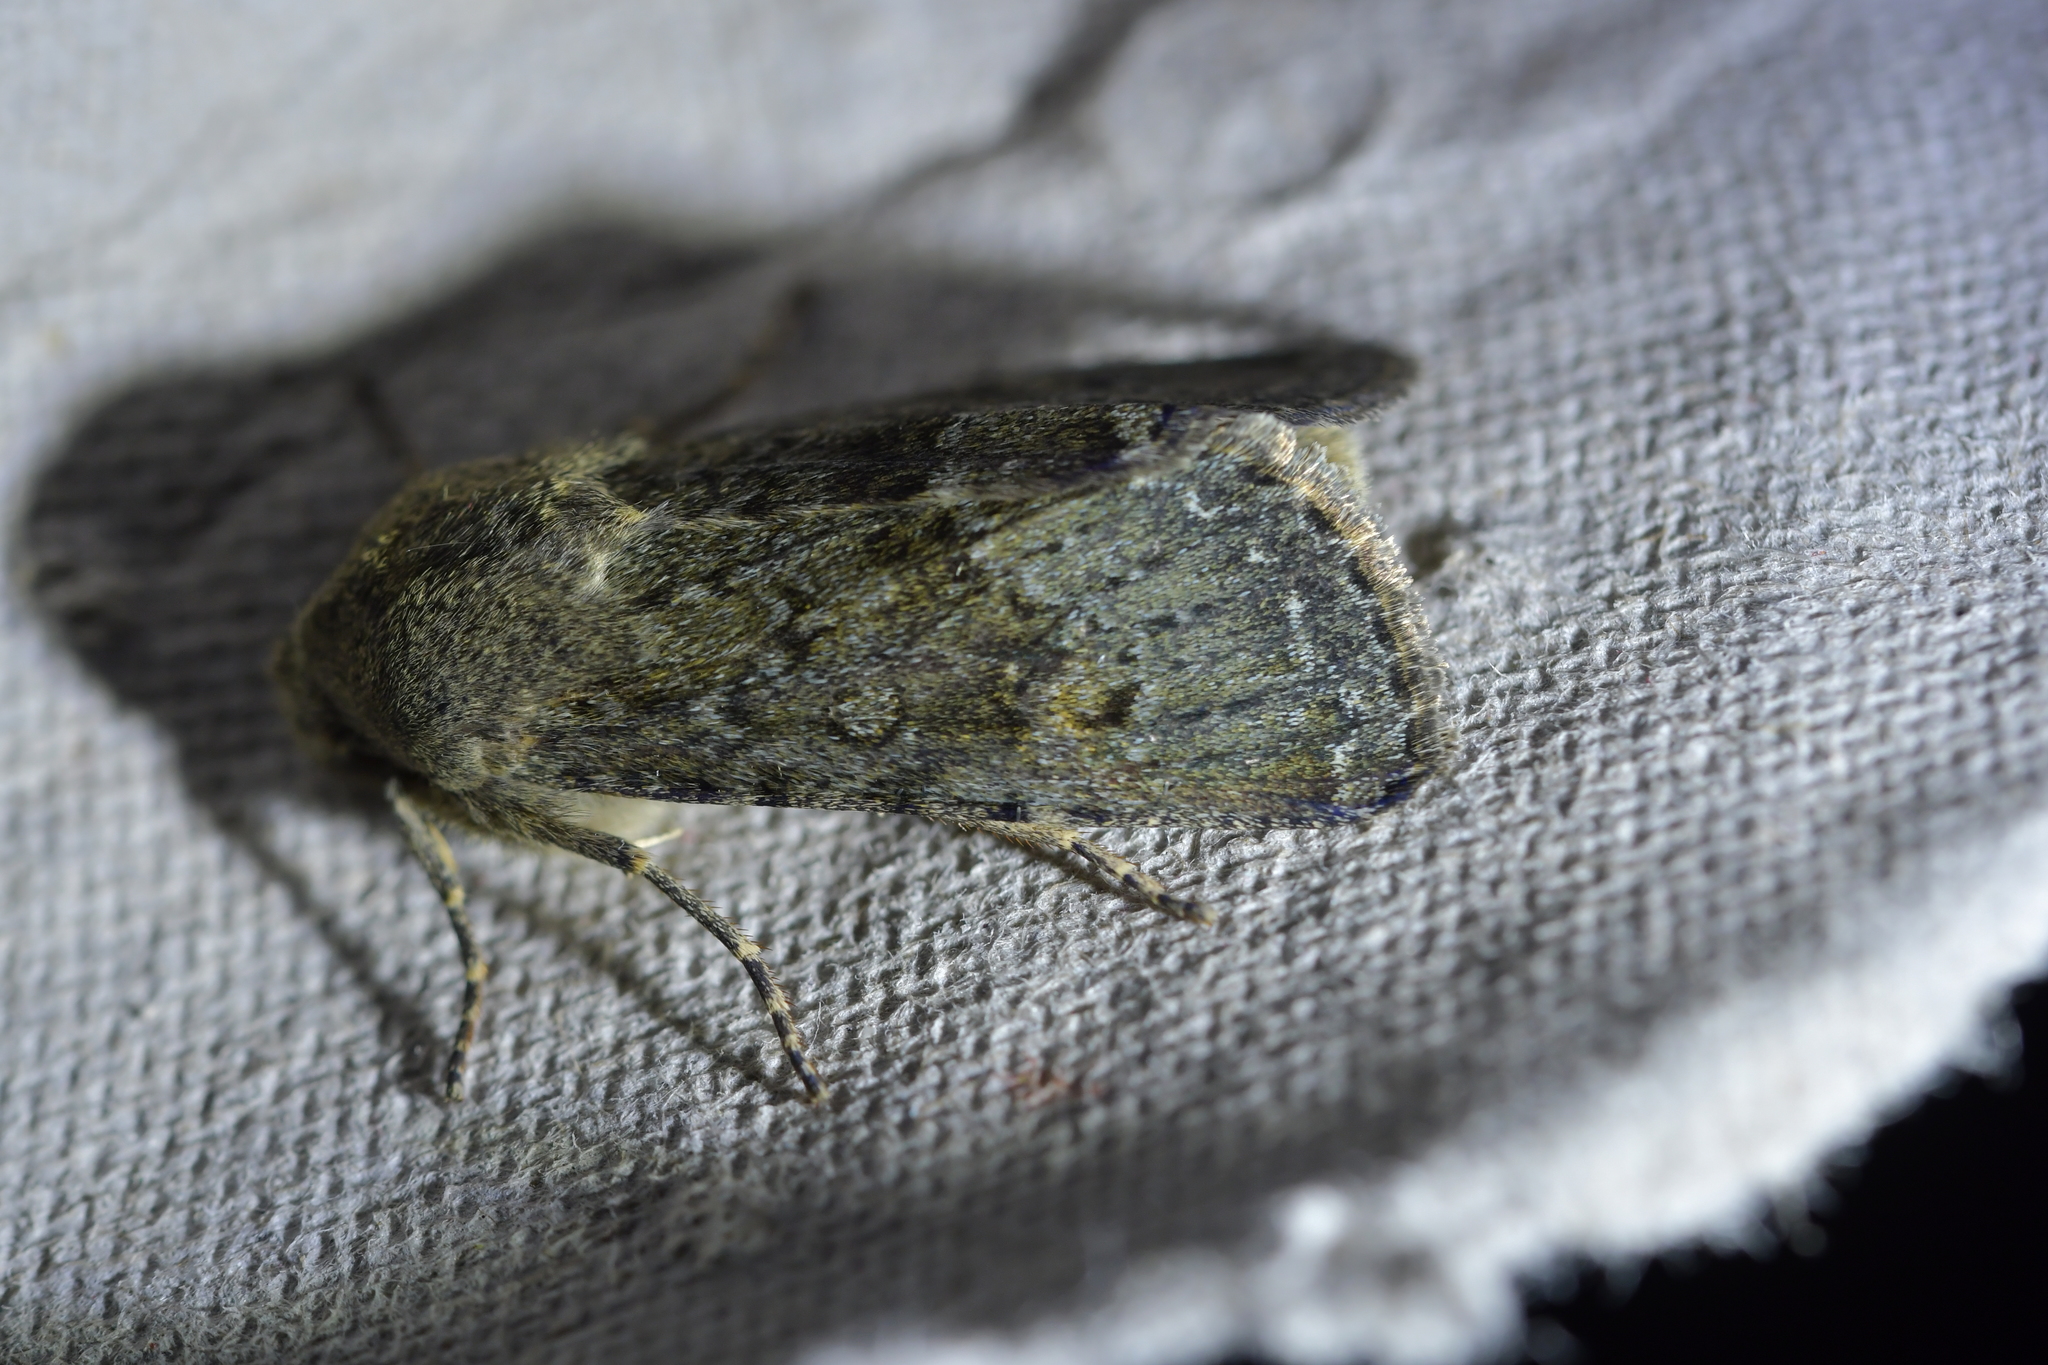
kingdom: Animalia
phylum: Arthropoda
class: Insecta
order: Lepidoptera
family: Noctuidae
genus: Ichneutica
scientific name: Ichneutica moderata
